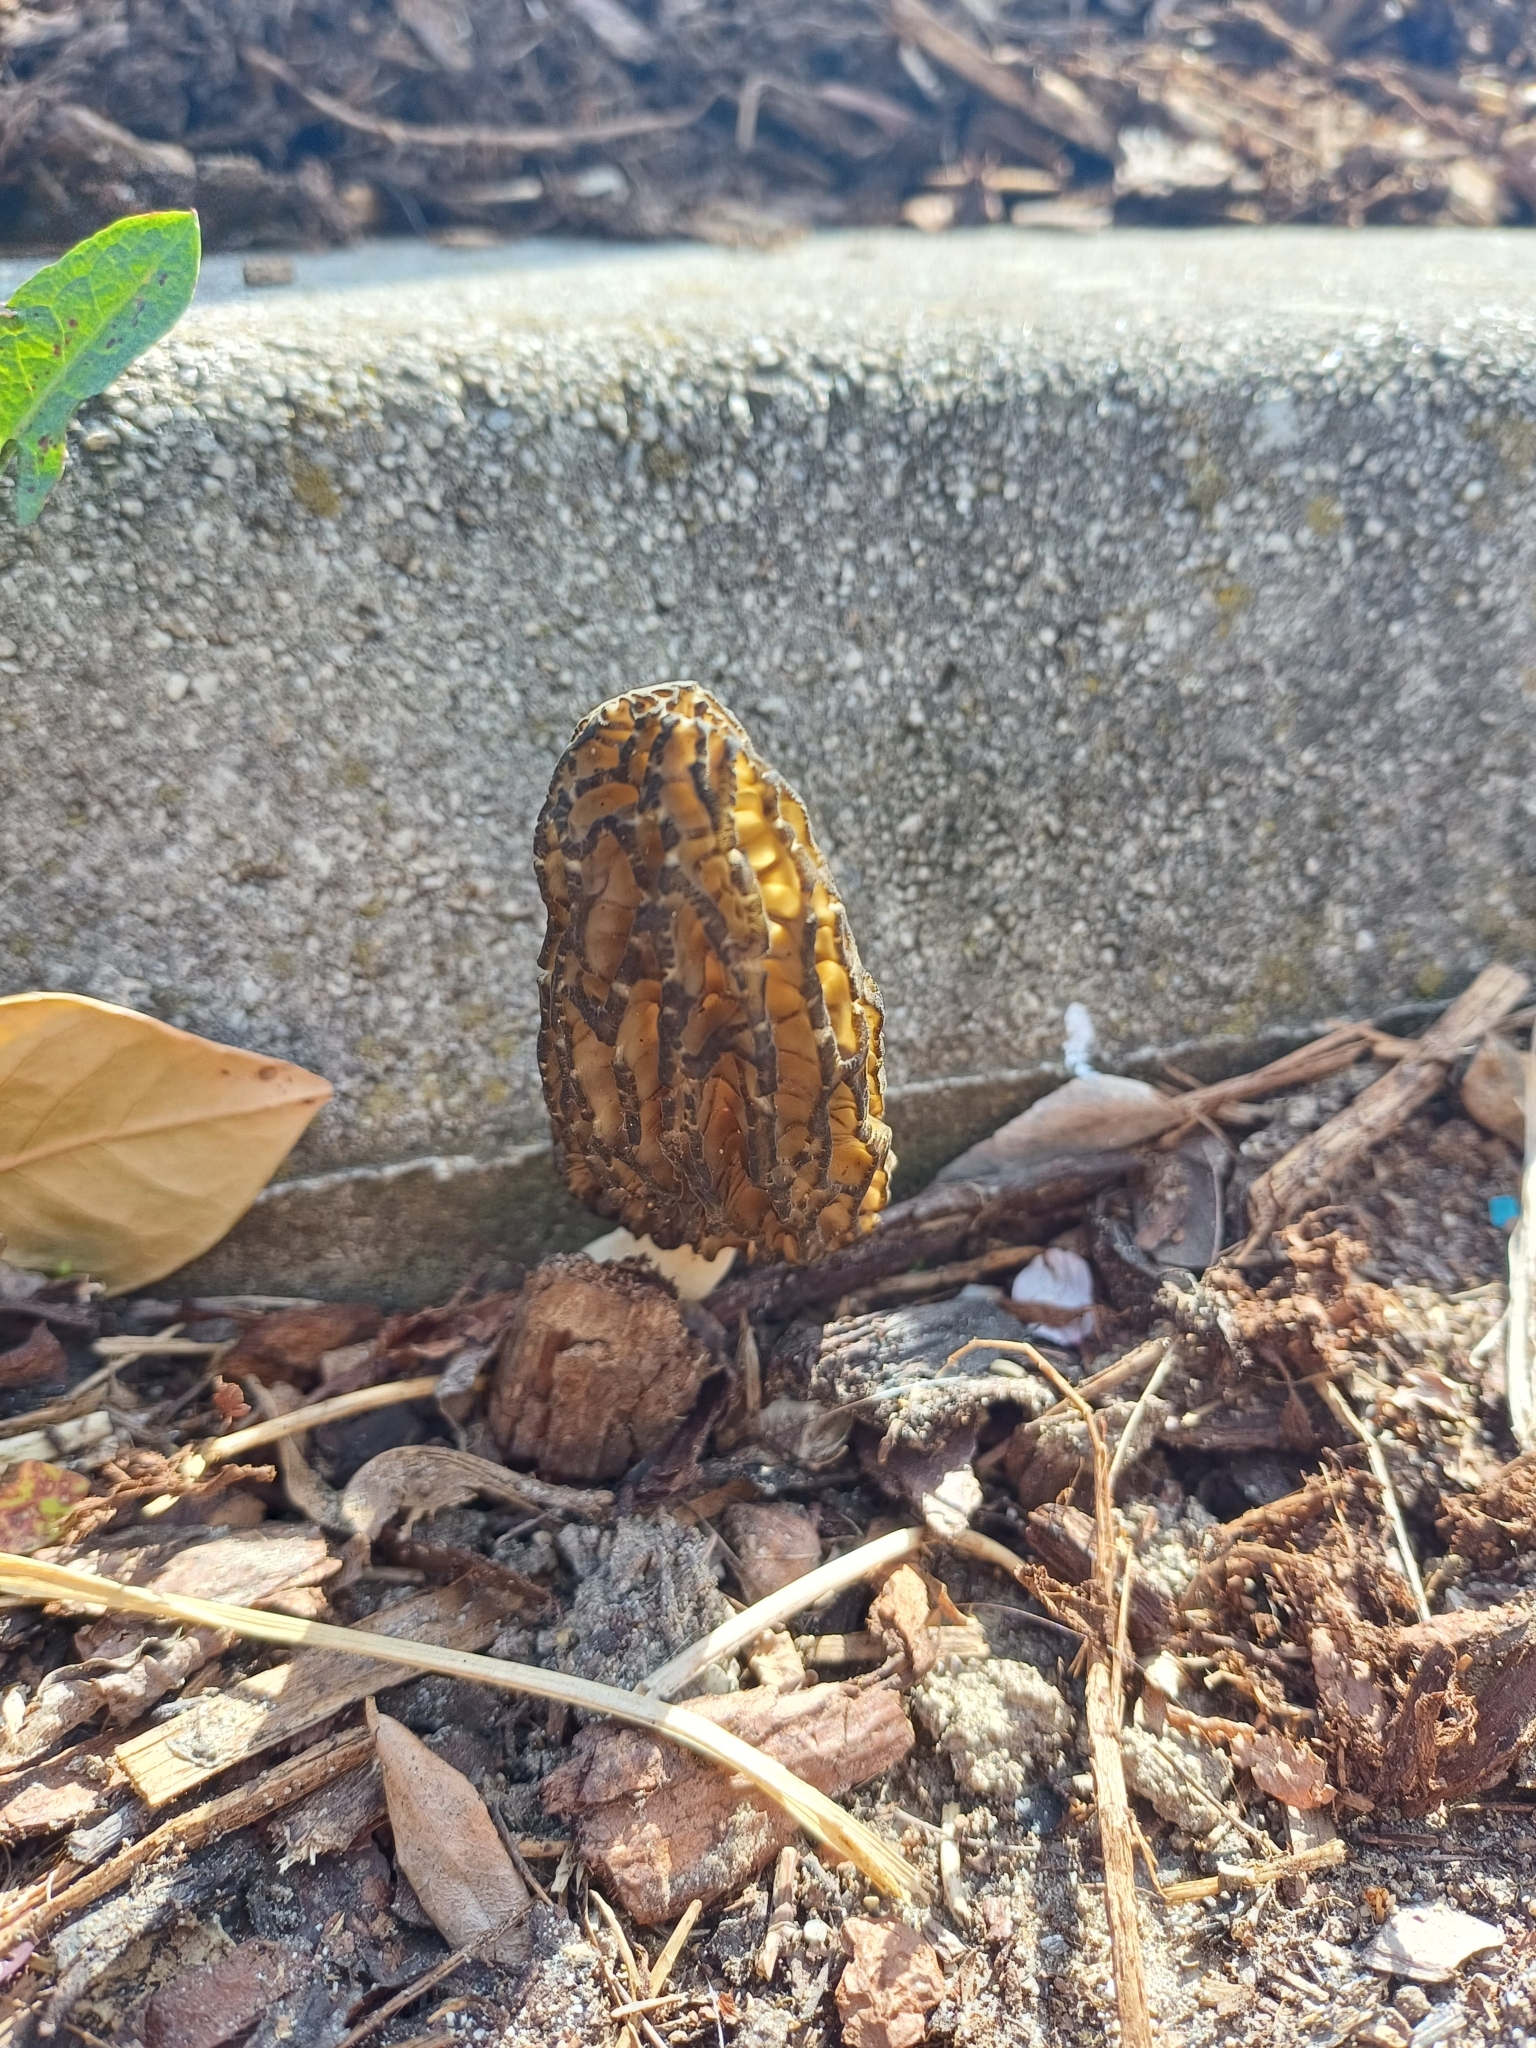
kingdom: Fungi
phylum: Ascomycota
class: Pezizomycetes
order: Pezizales
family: Morchellaceae
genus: Morchella
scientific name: Morchella importuna
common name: Landscaping black morel
